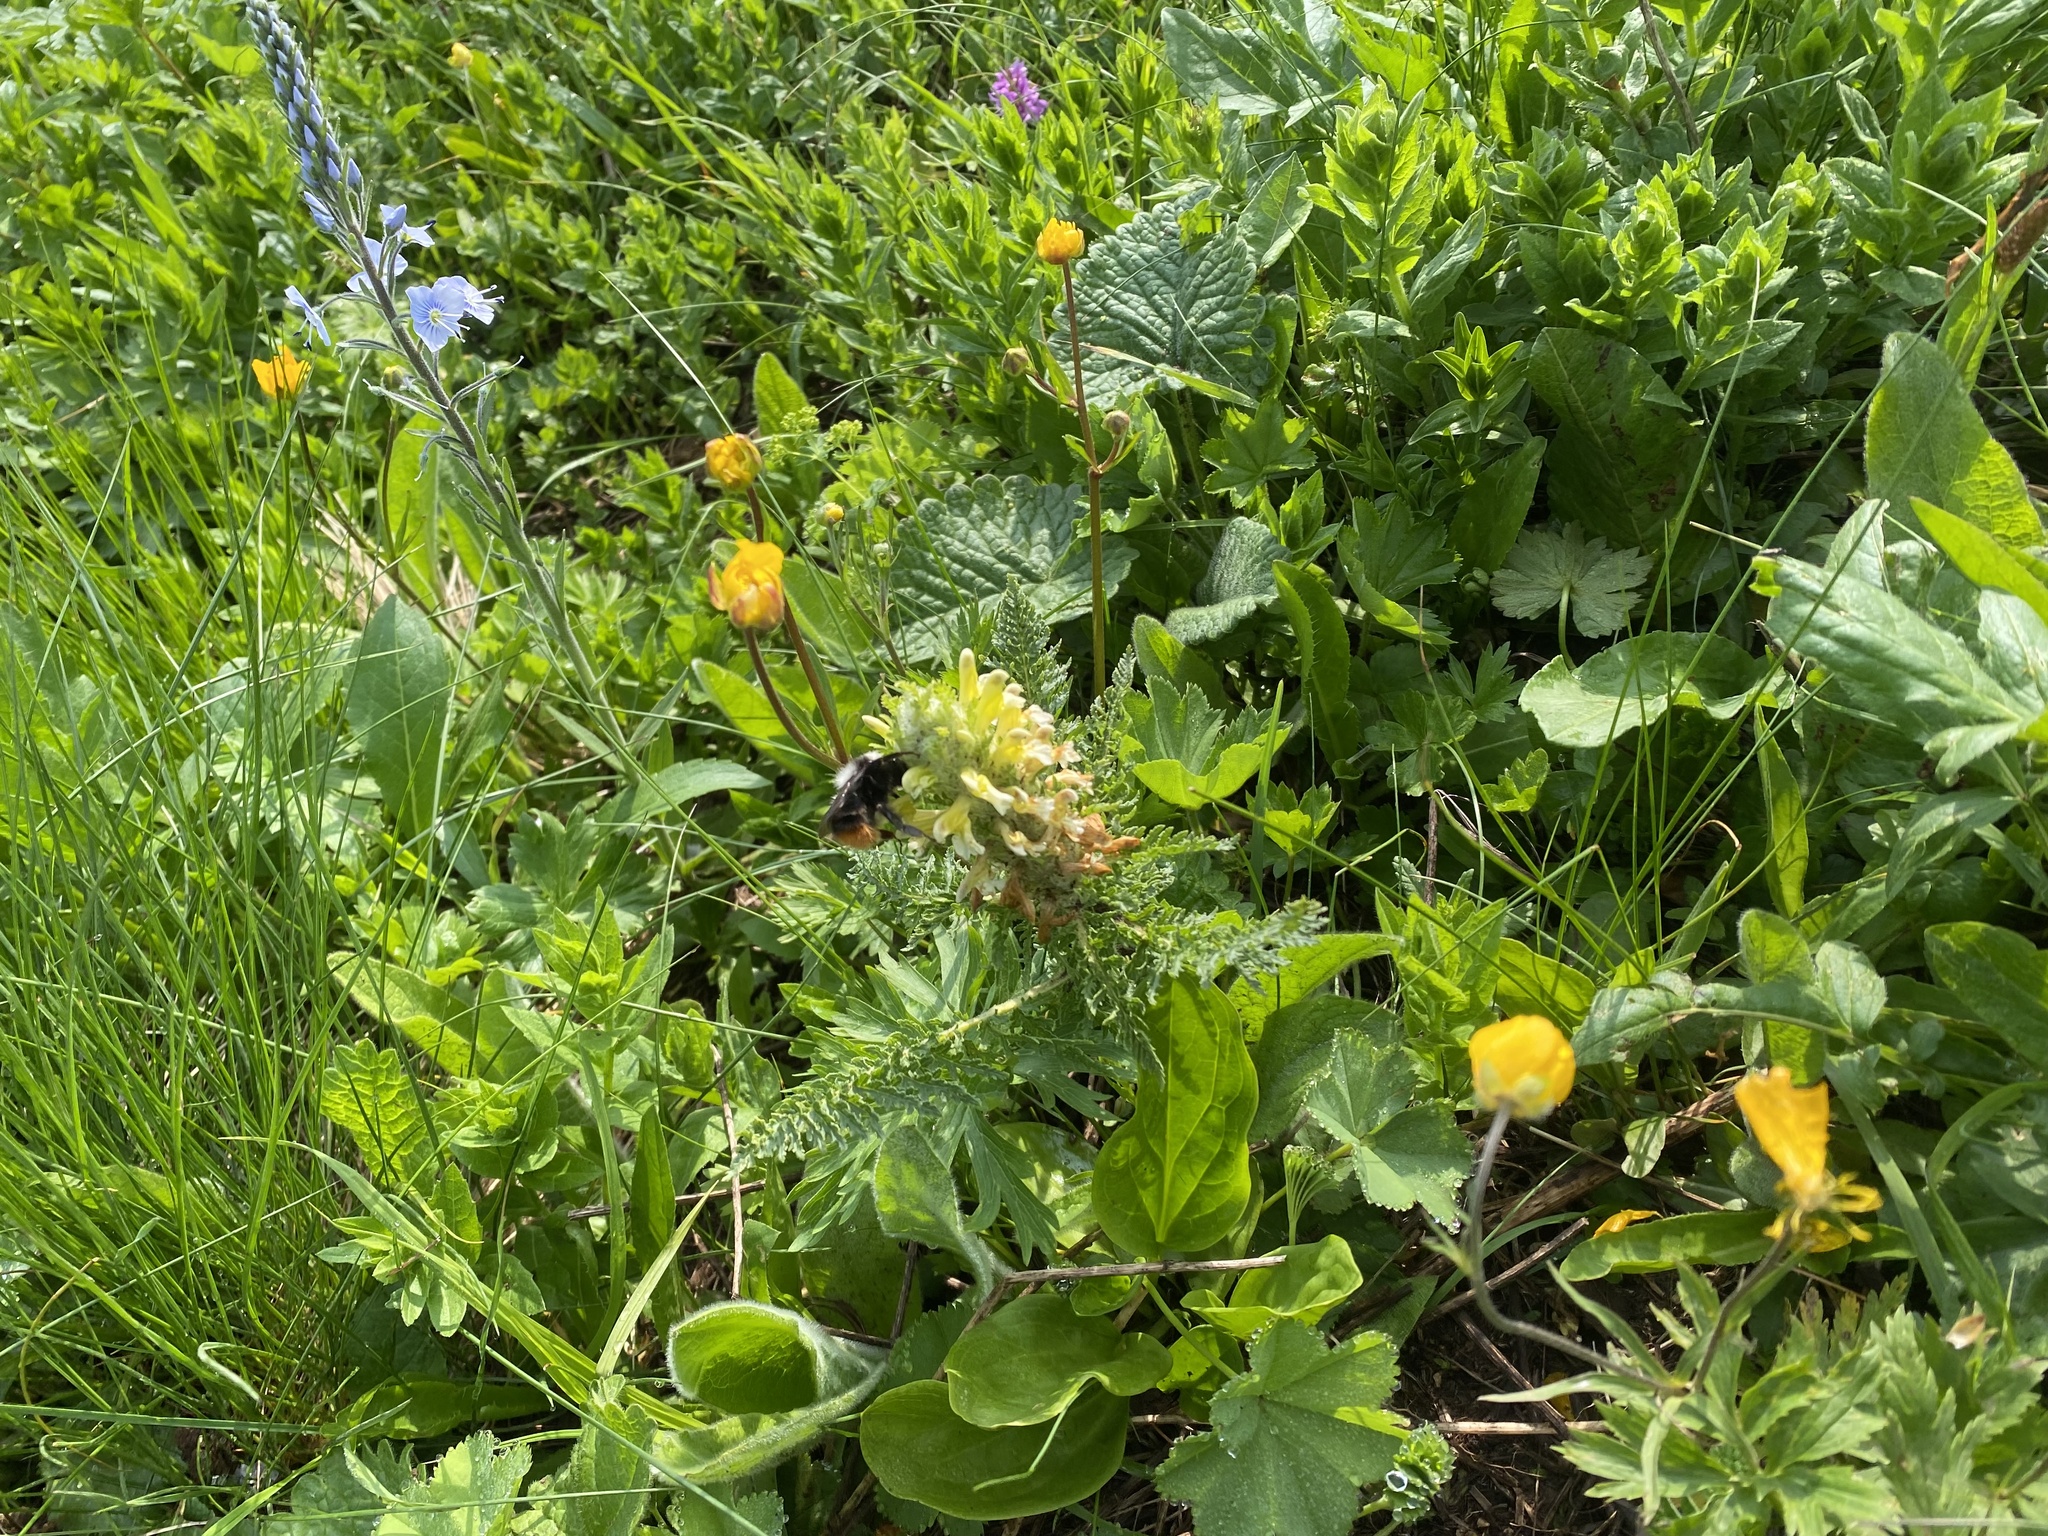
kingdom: Plantae
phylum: Tracheophyta
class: Magnoliopsida
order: Lamiales
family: Orobanchaceae
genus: Pedicularis
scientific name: Pedicularis condensata
